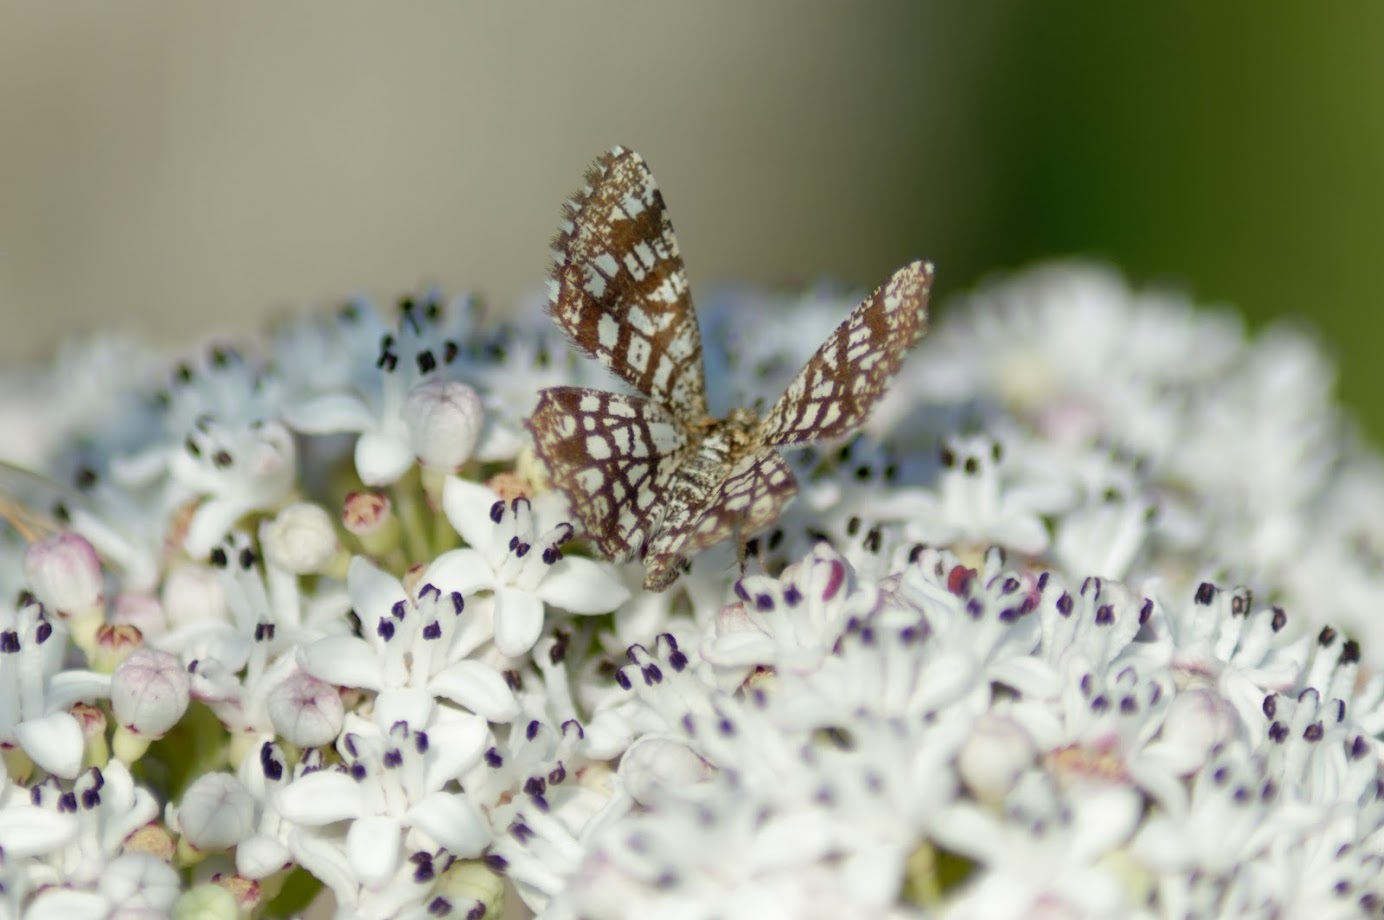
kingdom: Animalia
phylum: Arthropoda
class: Insecta
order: Lepidoptera
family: Geometridae
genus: Chiasmia
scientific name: Chiasmia clathrata
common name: Latticed heath
